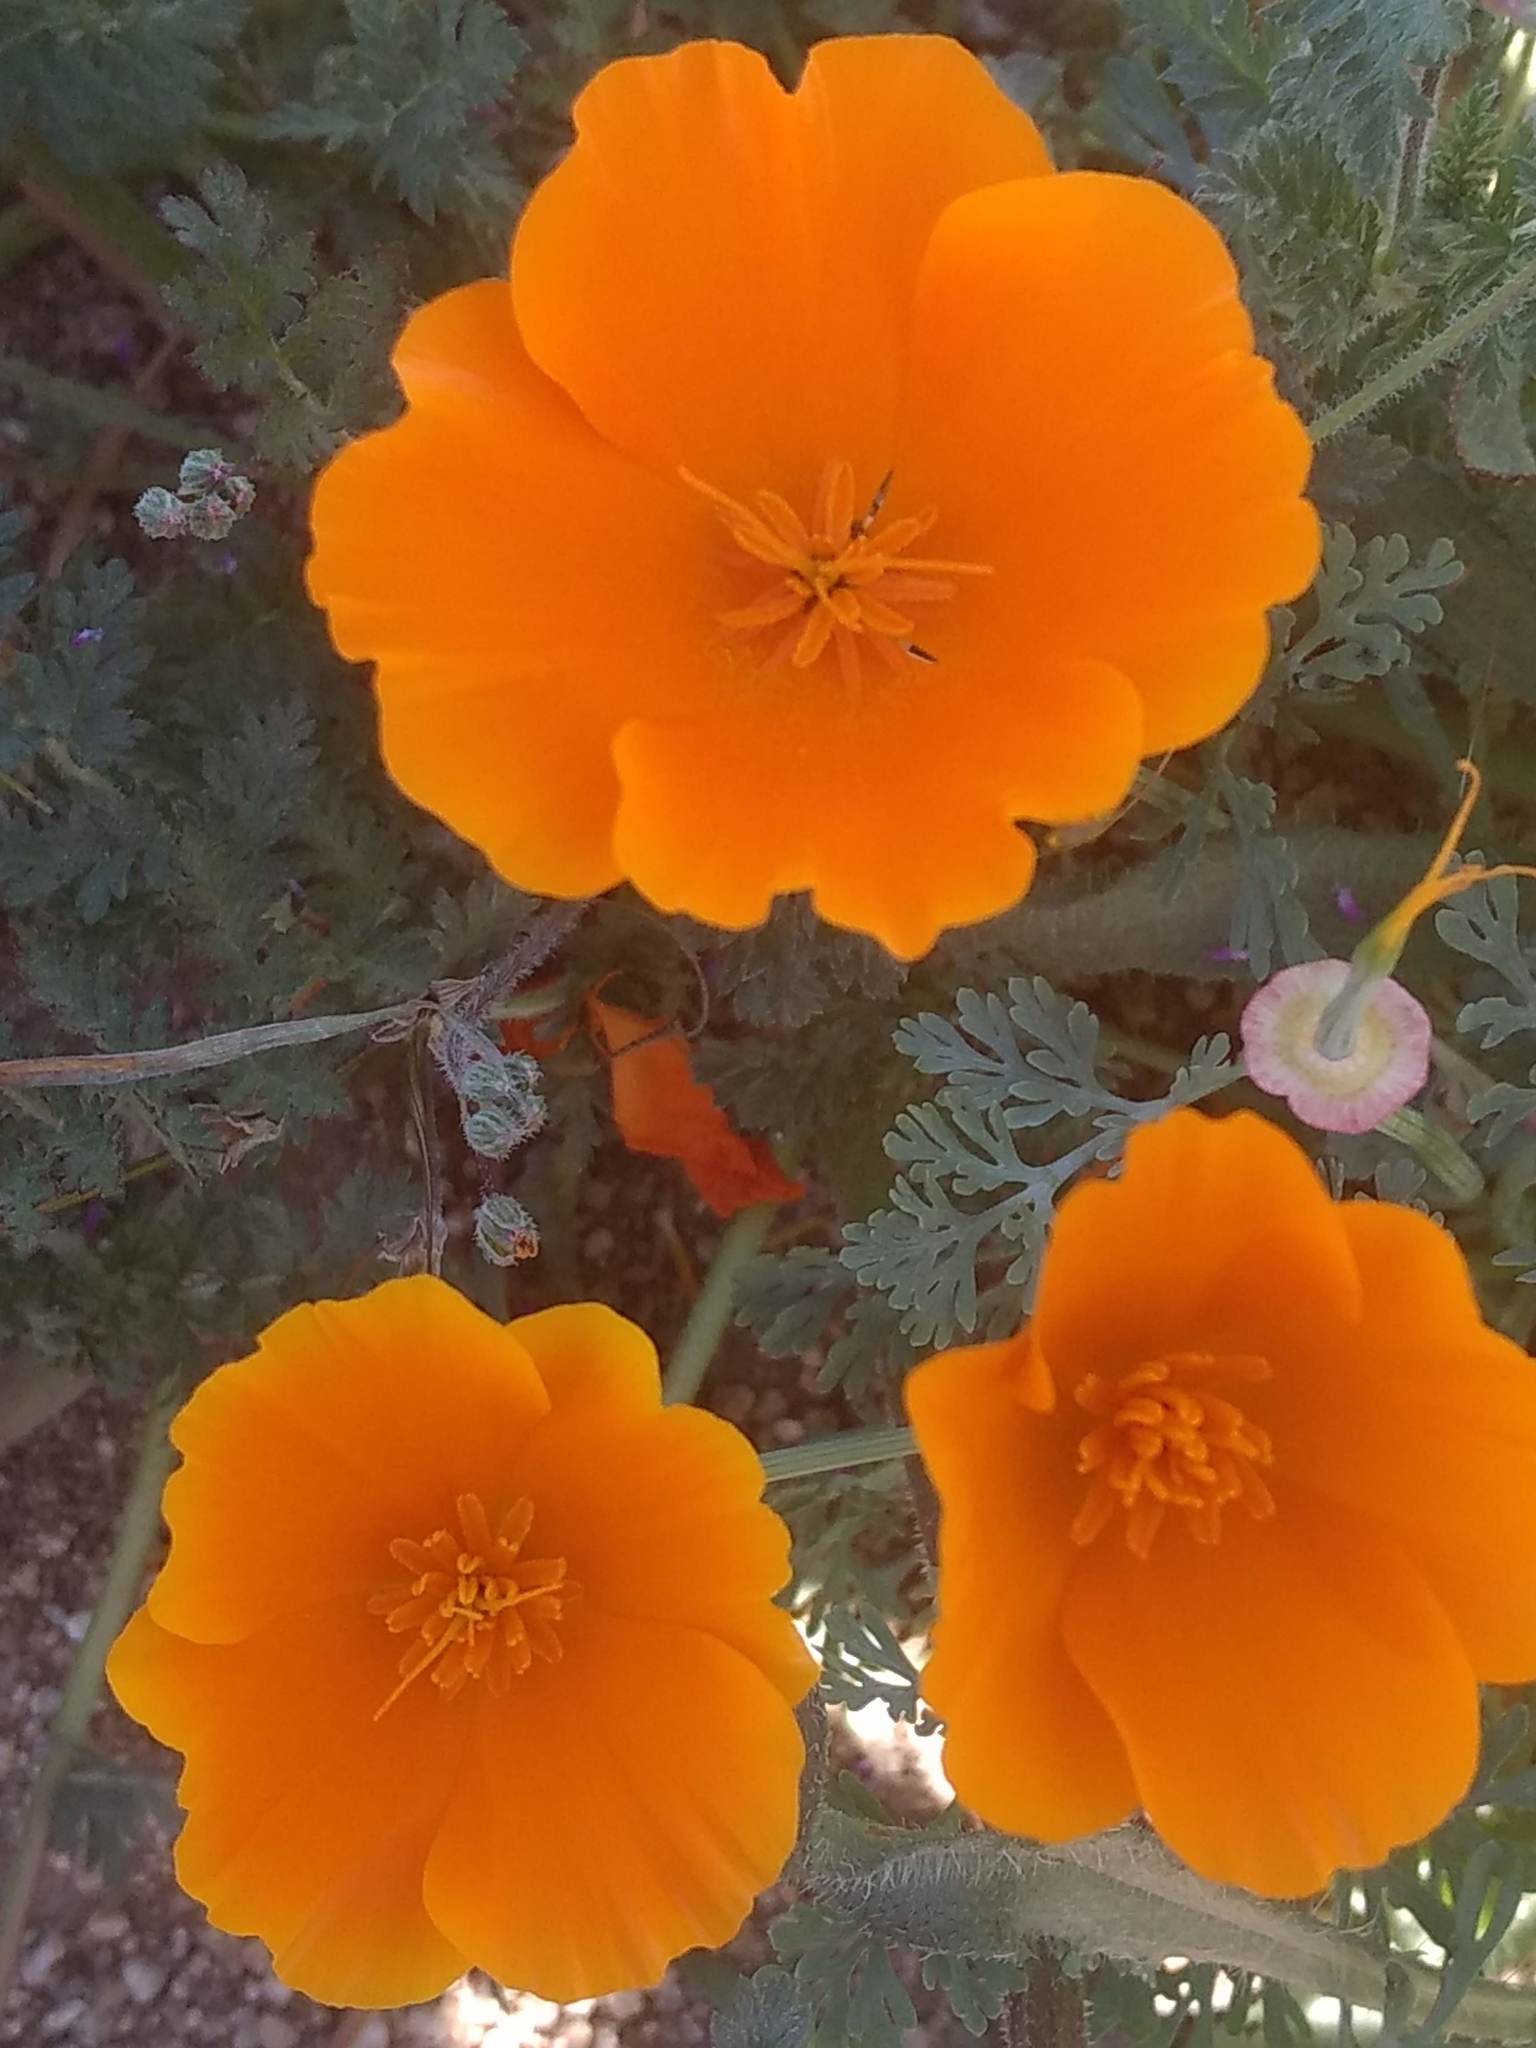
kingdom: Plantae
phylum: Tracheophyta
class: Magnoliopsida
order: Ranunculales
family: Papaveraceae
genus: Eschscholzia
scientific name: Eschscholzia californica
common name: California poppy
